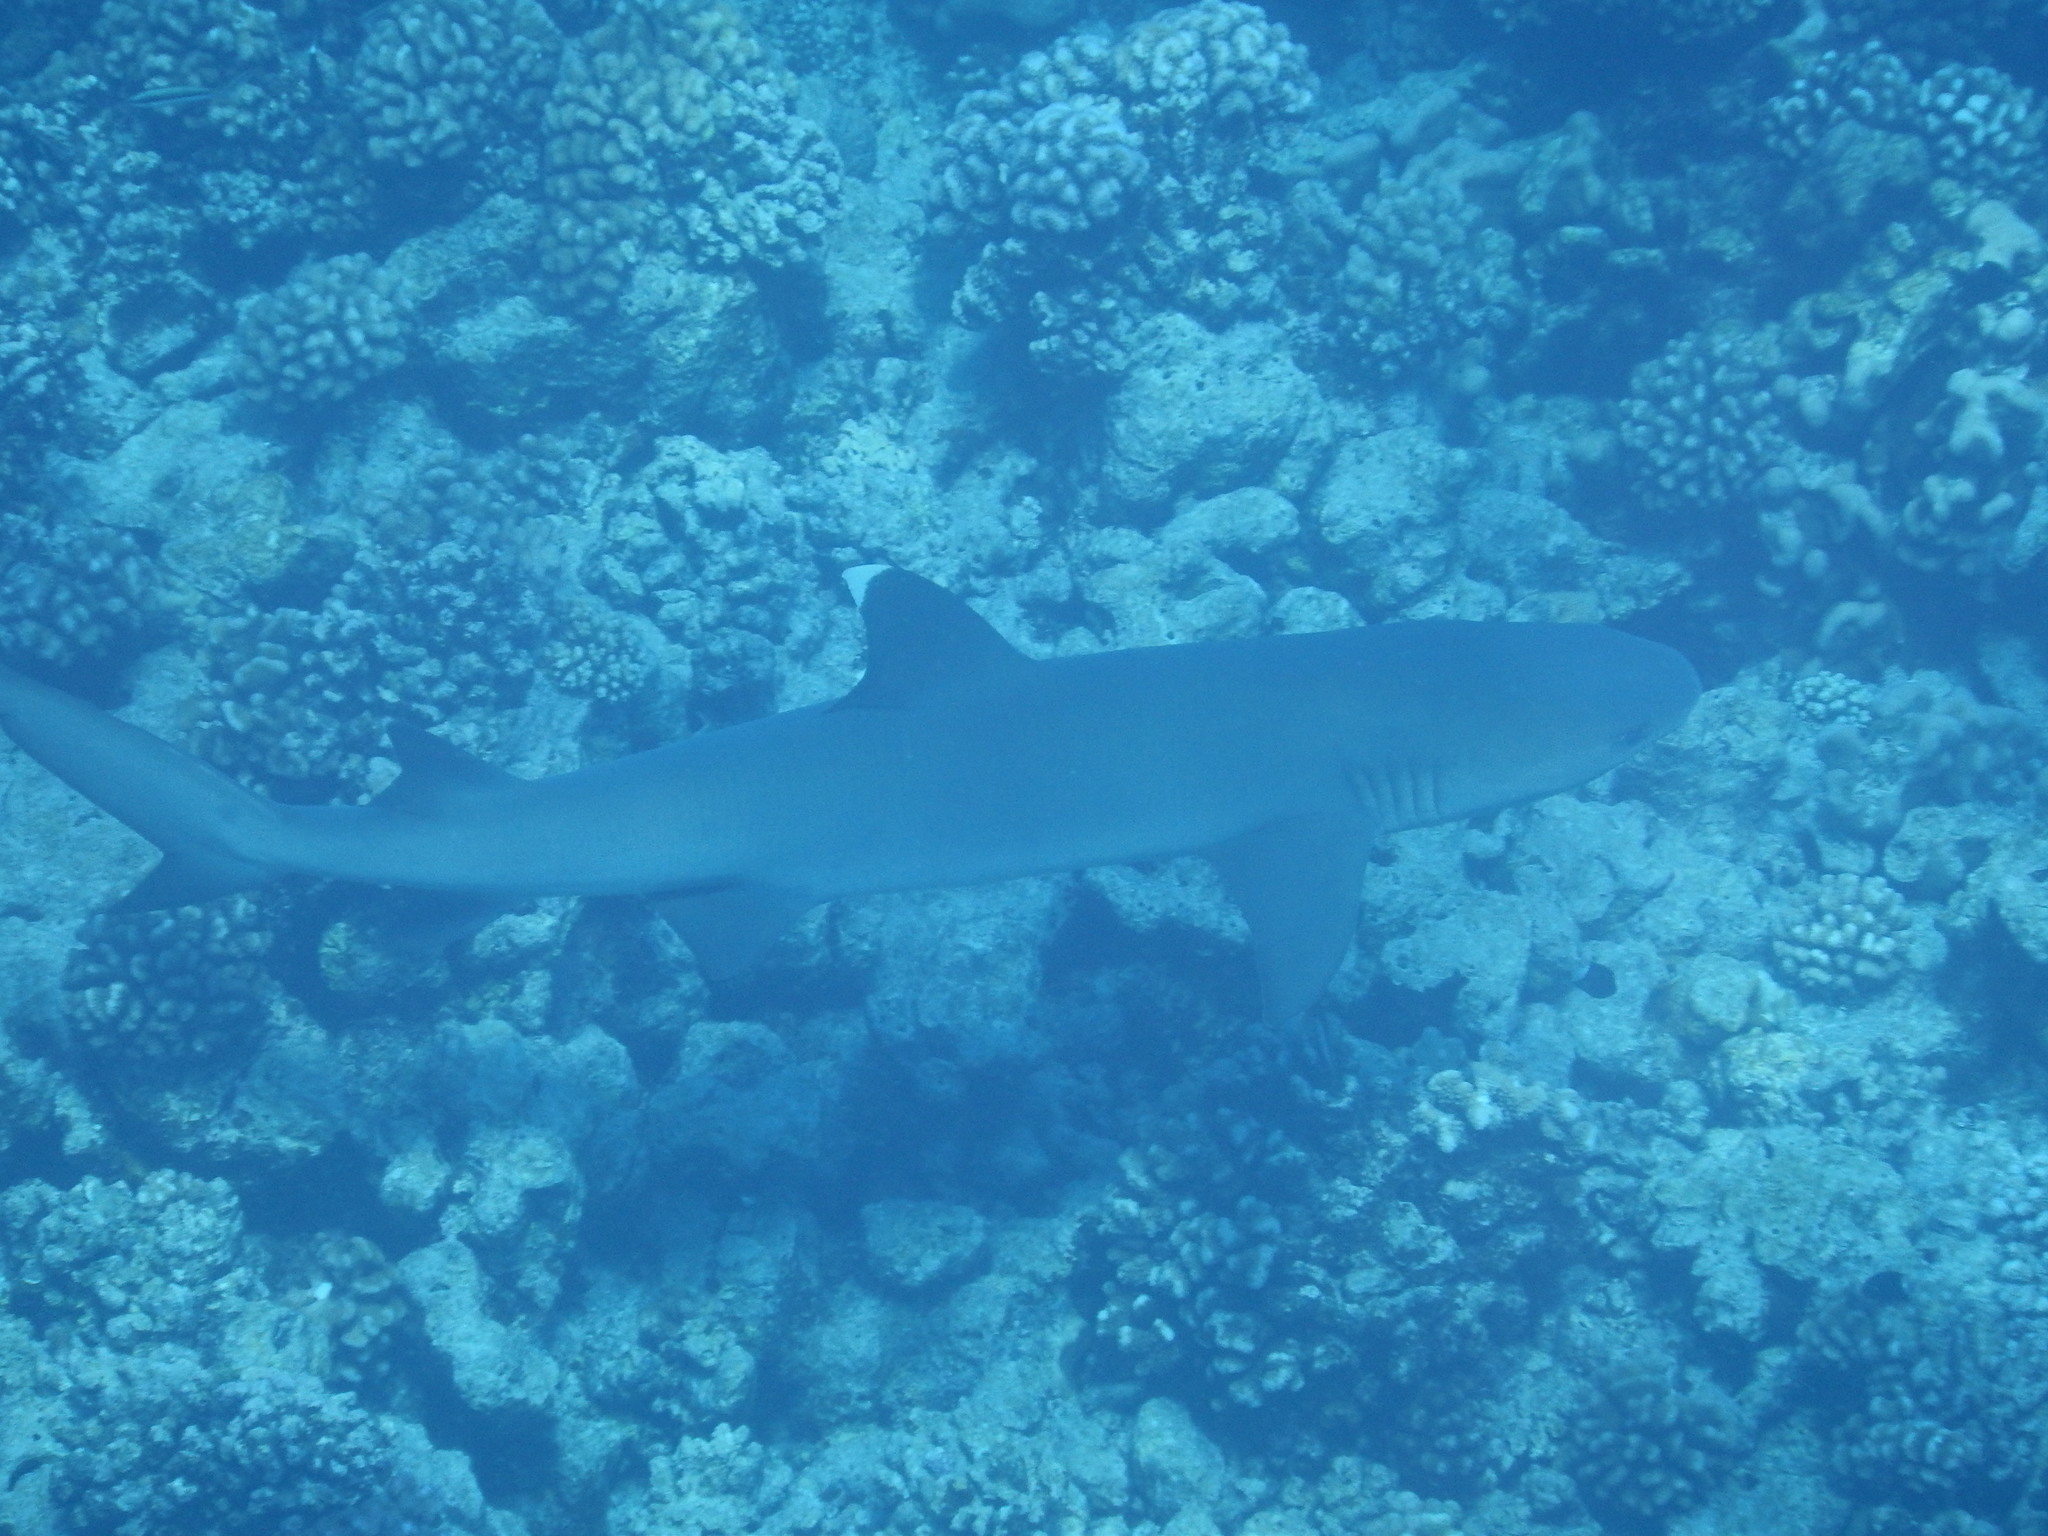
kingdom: Animalia
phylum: Chordata
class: Elasmobranchii
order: Carcharhiniformes
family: Carcharhinidae
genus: Triaenodon
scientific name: Triaenodon obesus
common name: Whitetip reef shark
